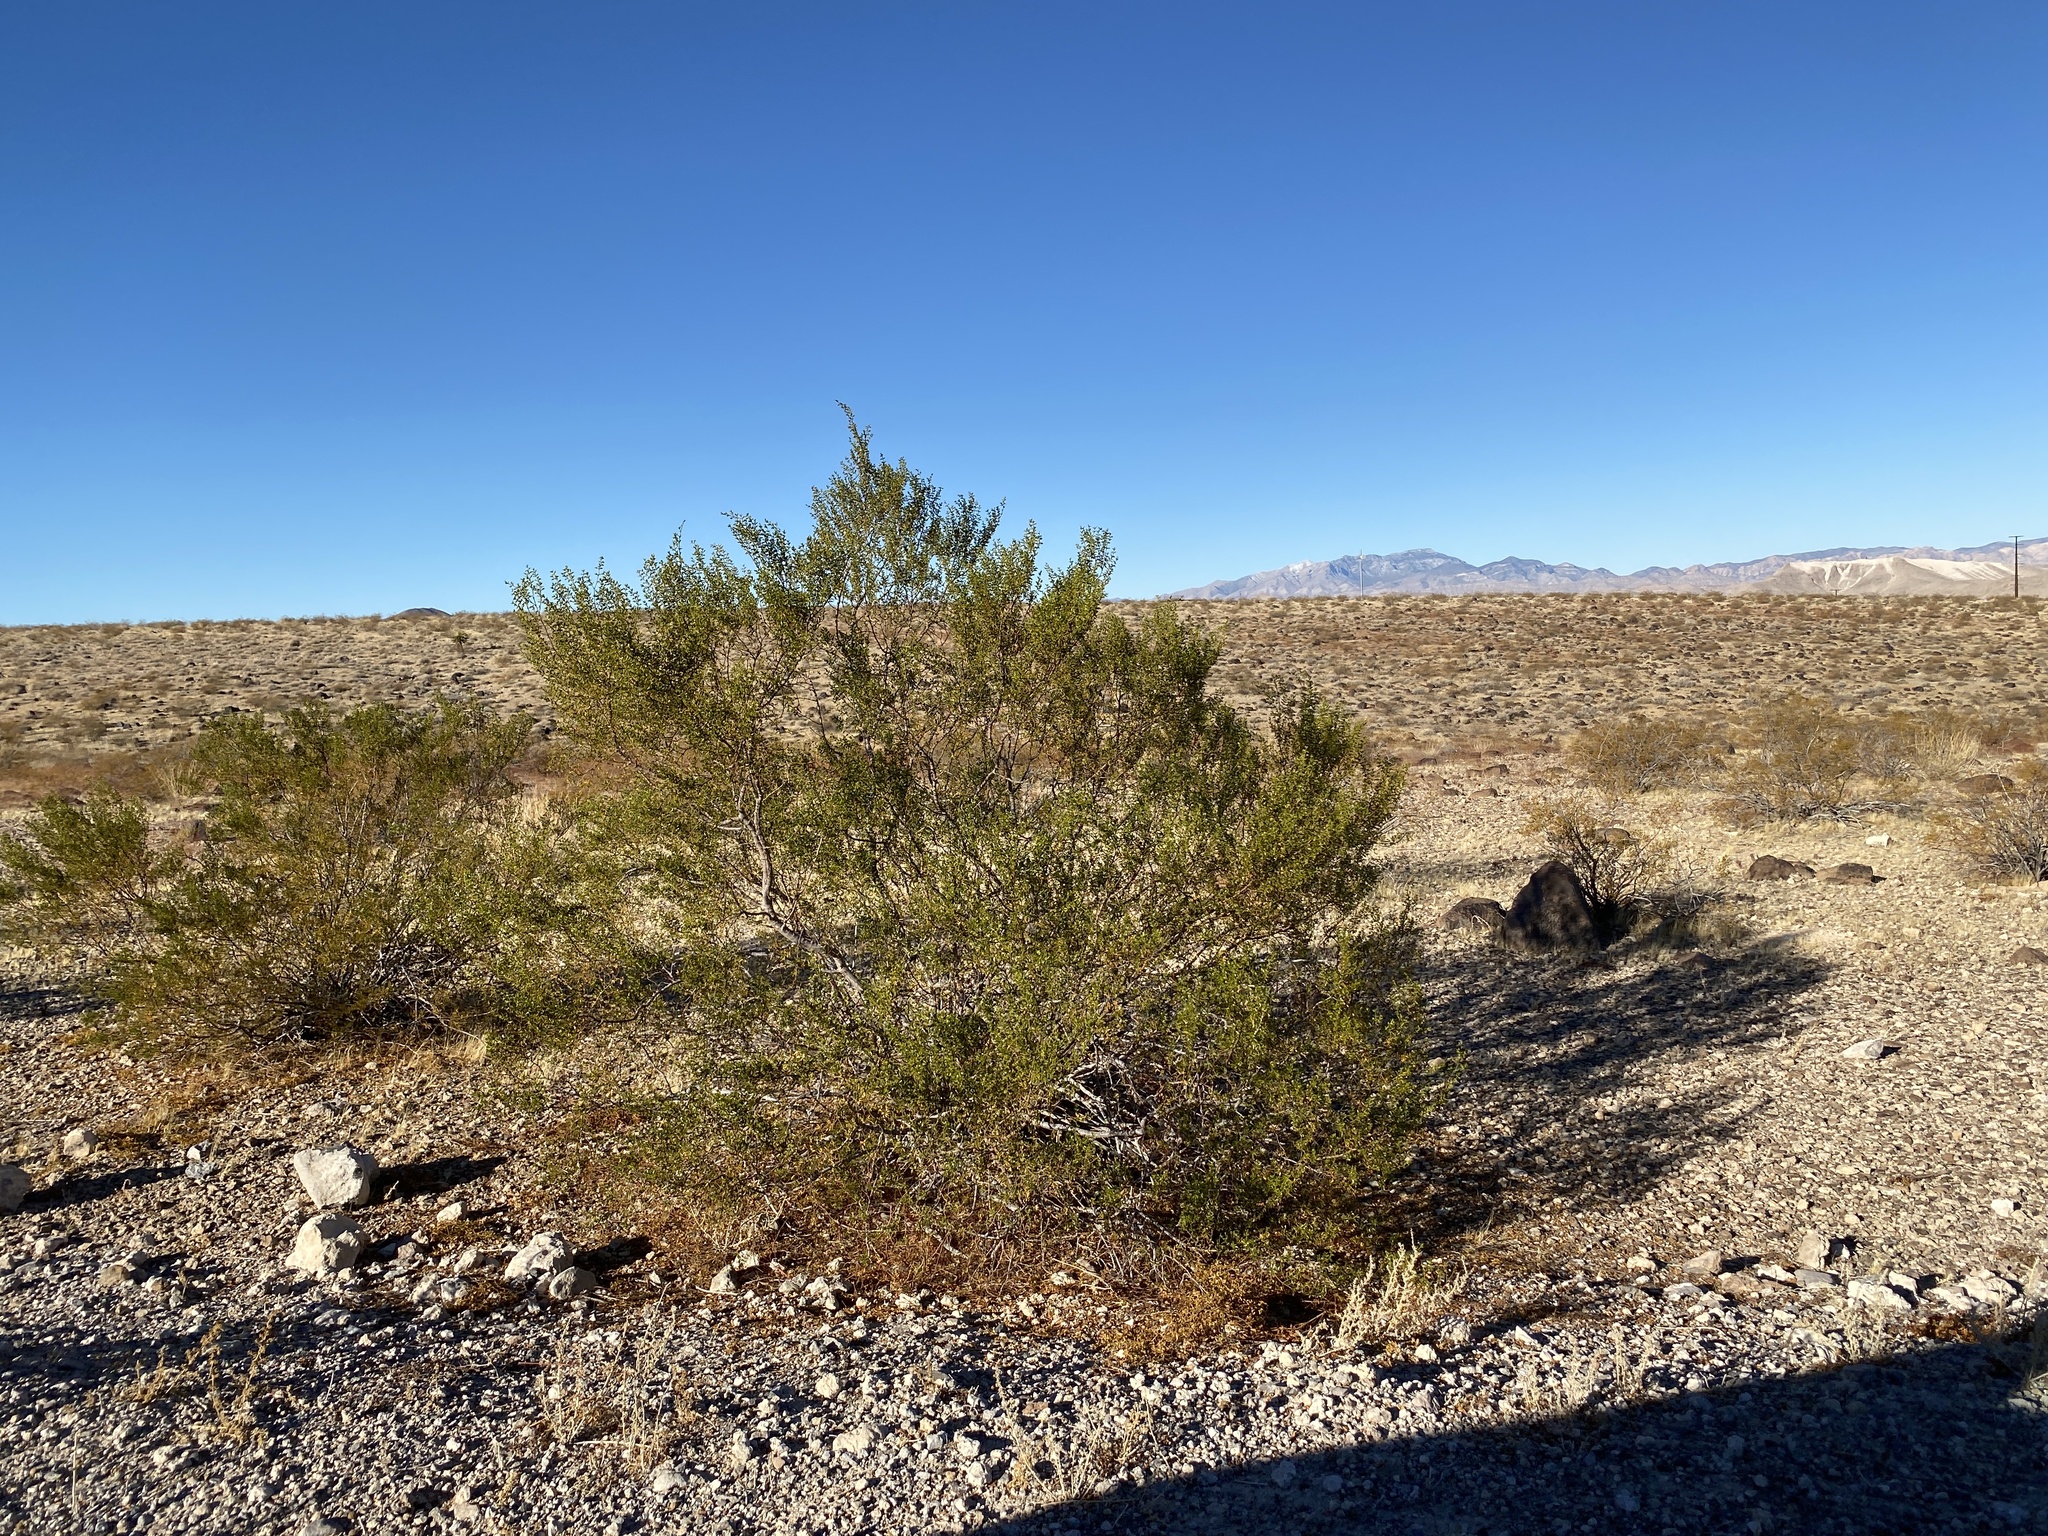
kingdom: Plantae
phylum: Tracheophyta
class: Magnoliopsida
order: Zygophyllales
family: Zygophyllaceae
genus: Larrea
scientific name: Larrea tridentata
